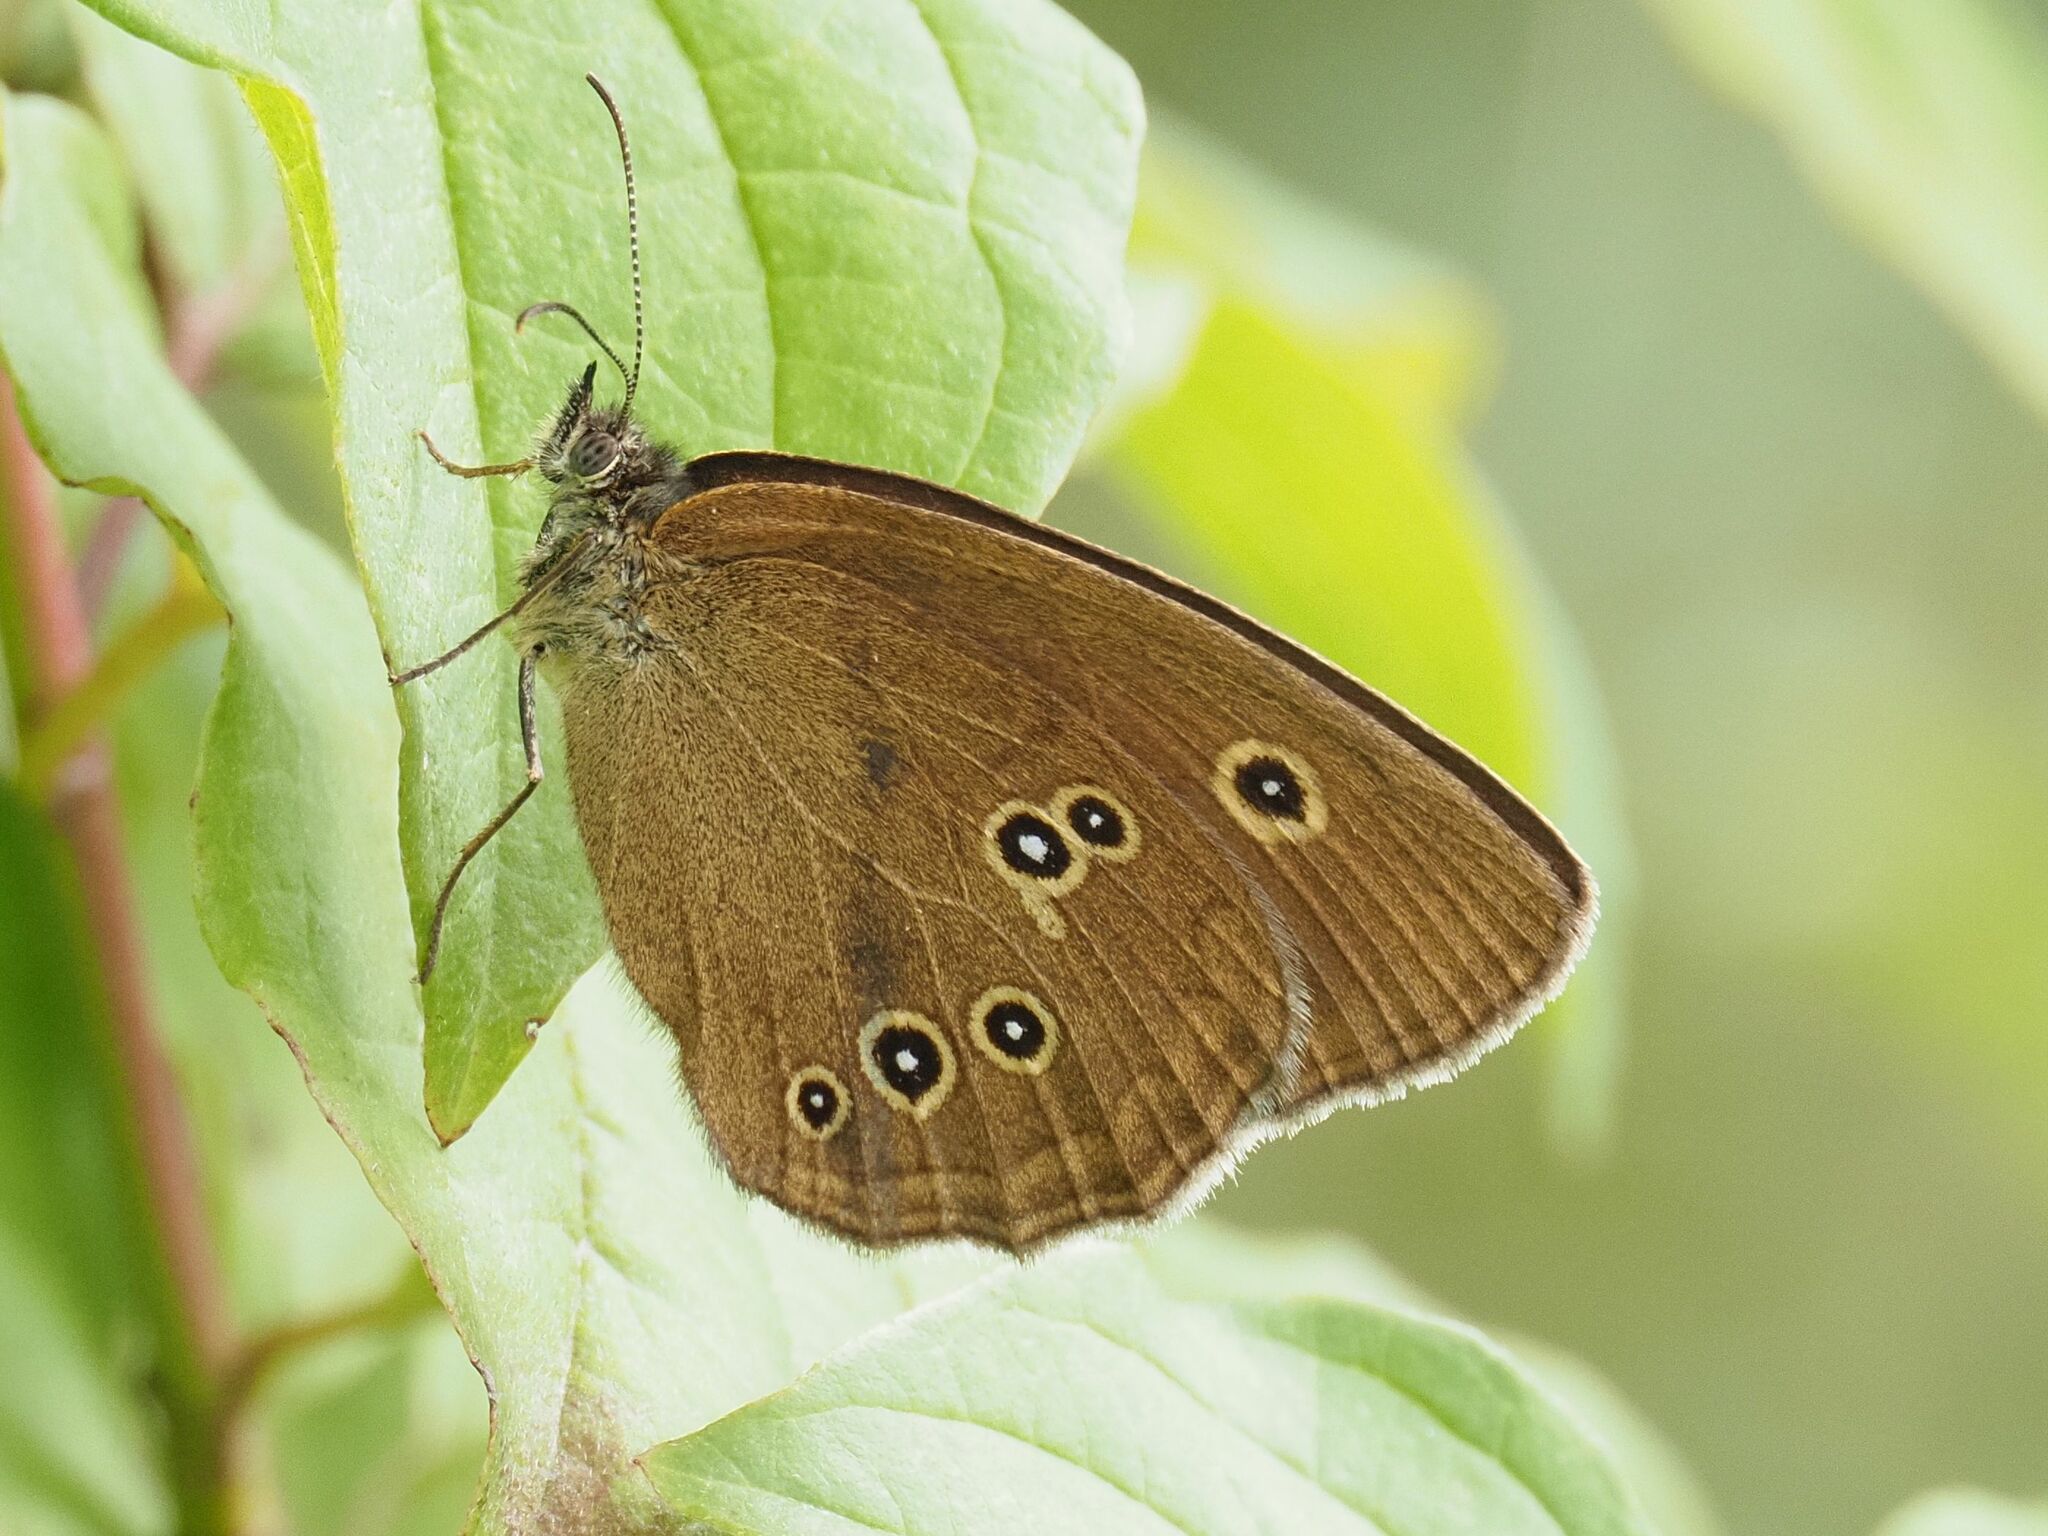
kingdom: Animalia
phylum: Arthropoda
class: Insecta
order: Lepidoptera
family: Nymphalidae
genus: Aphantopus
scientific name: Aphantopus hyperantus
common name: Ringlet
